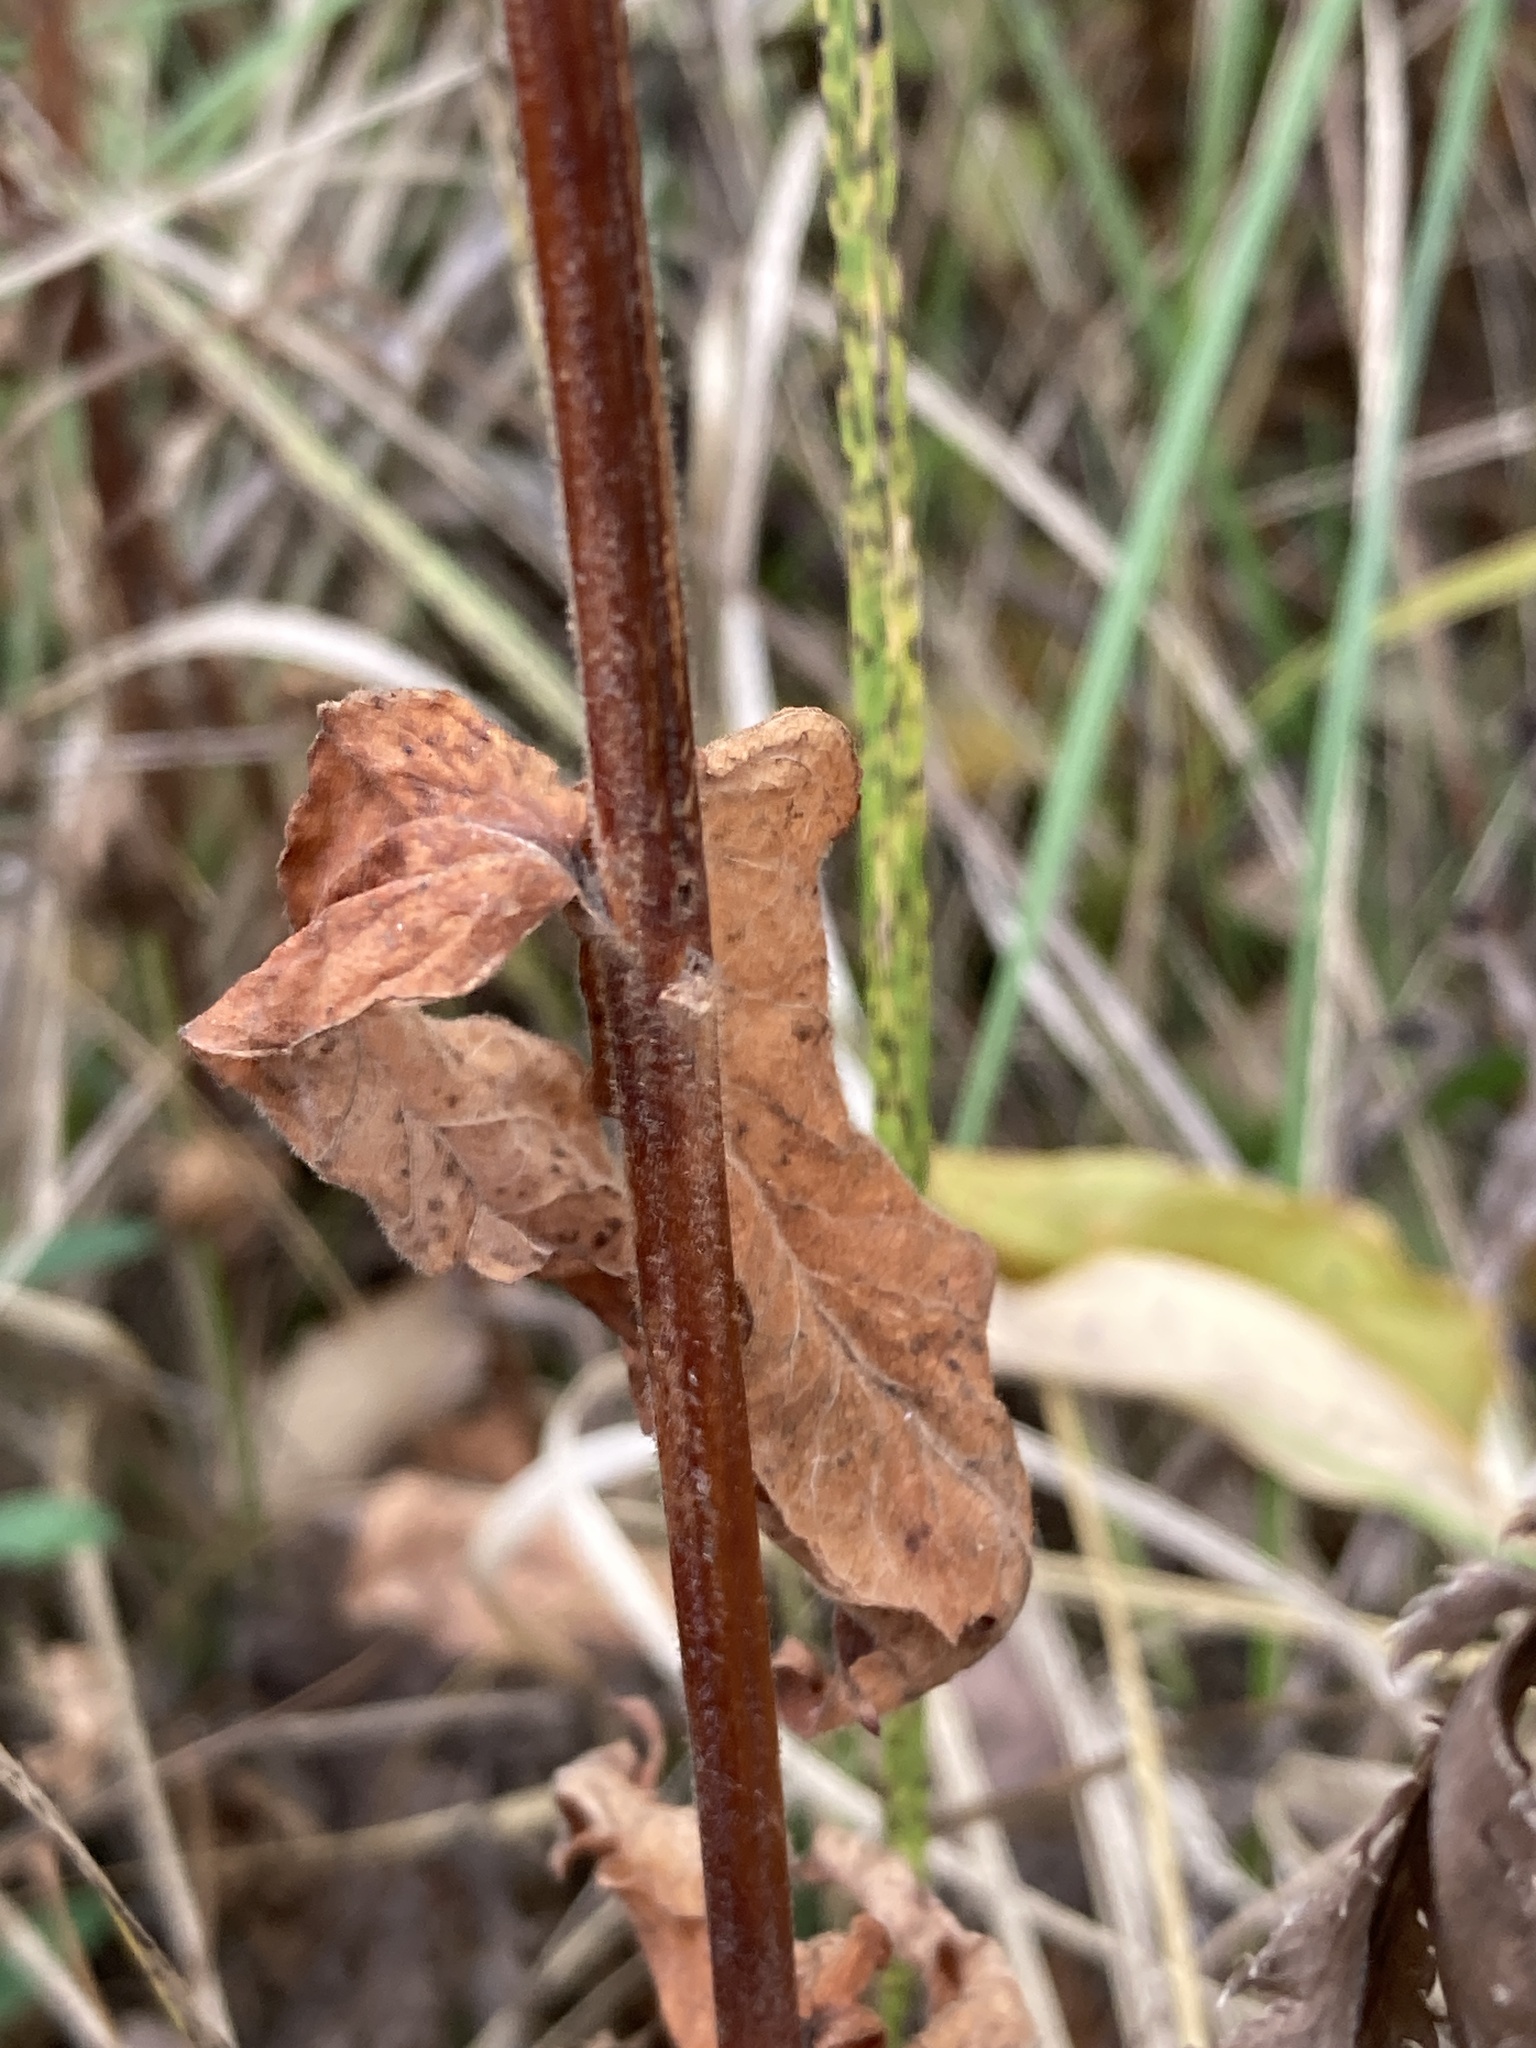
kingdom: Plantae
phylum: Tracheophyta
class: Magnoliopsida
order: Ericales
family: Primulaceae
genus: Lysimachia
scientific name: Lysimachia vulgaris
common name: Yellow loosestrife
